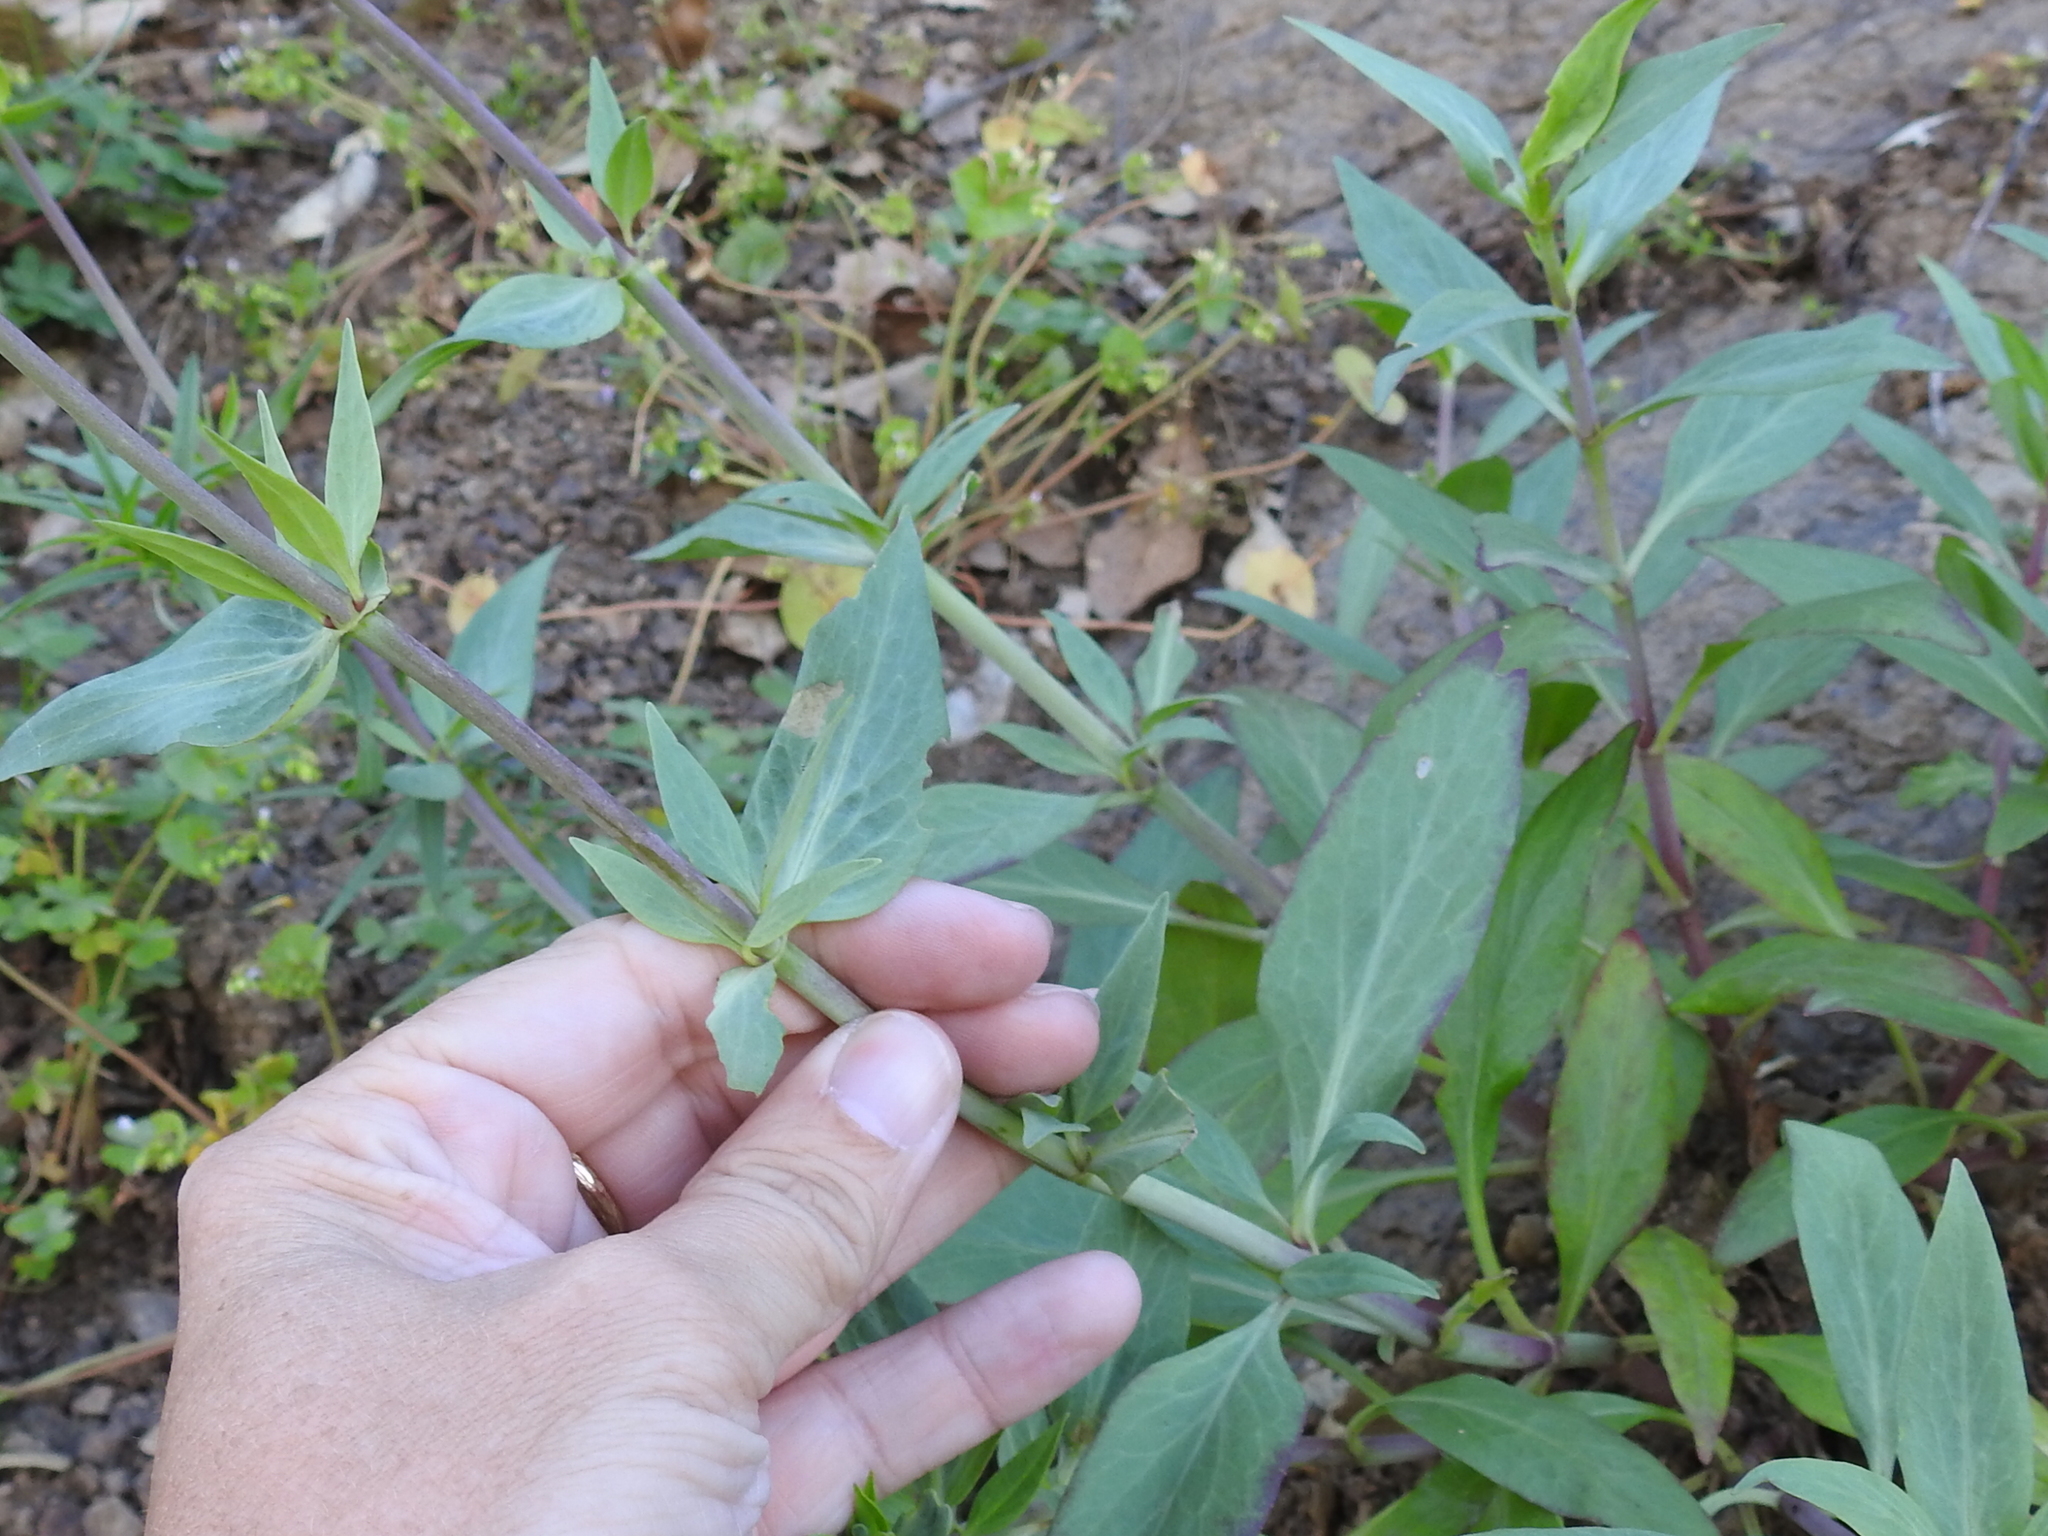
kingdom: Plantae
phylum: Tracheophyta
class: Magnoliopsida
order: Dipsacales
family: Caprifoliaceae
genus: Centranthus
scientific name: Centranthus ruber
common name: Red valerian
